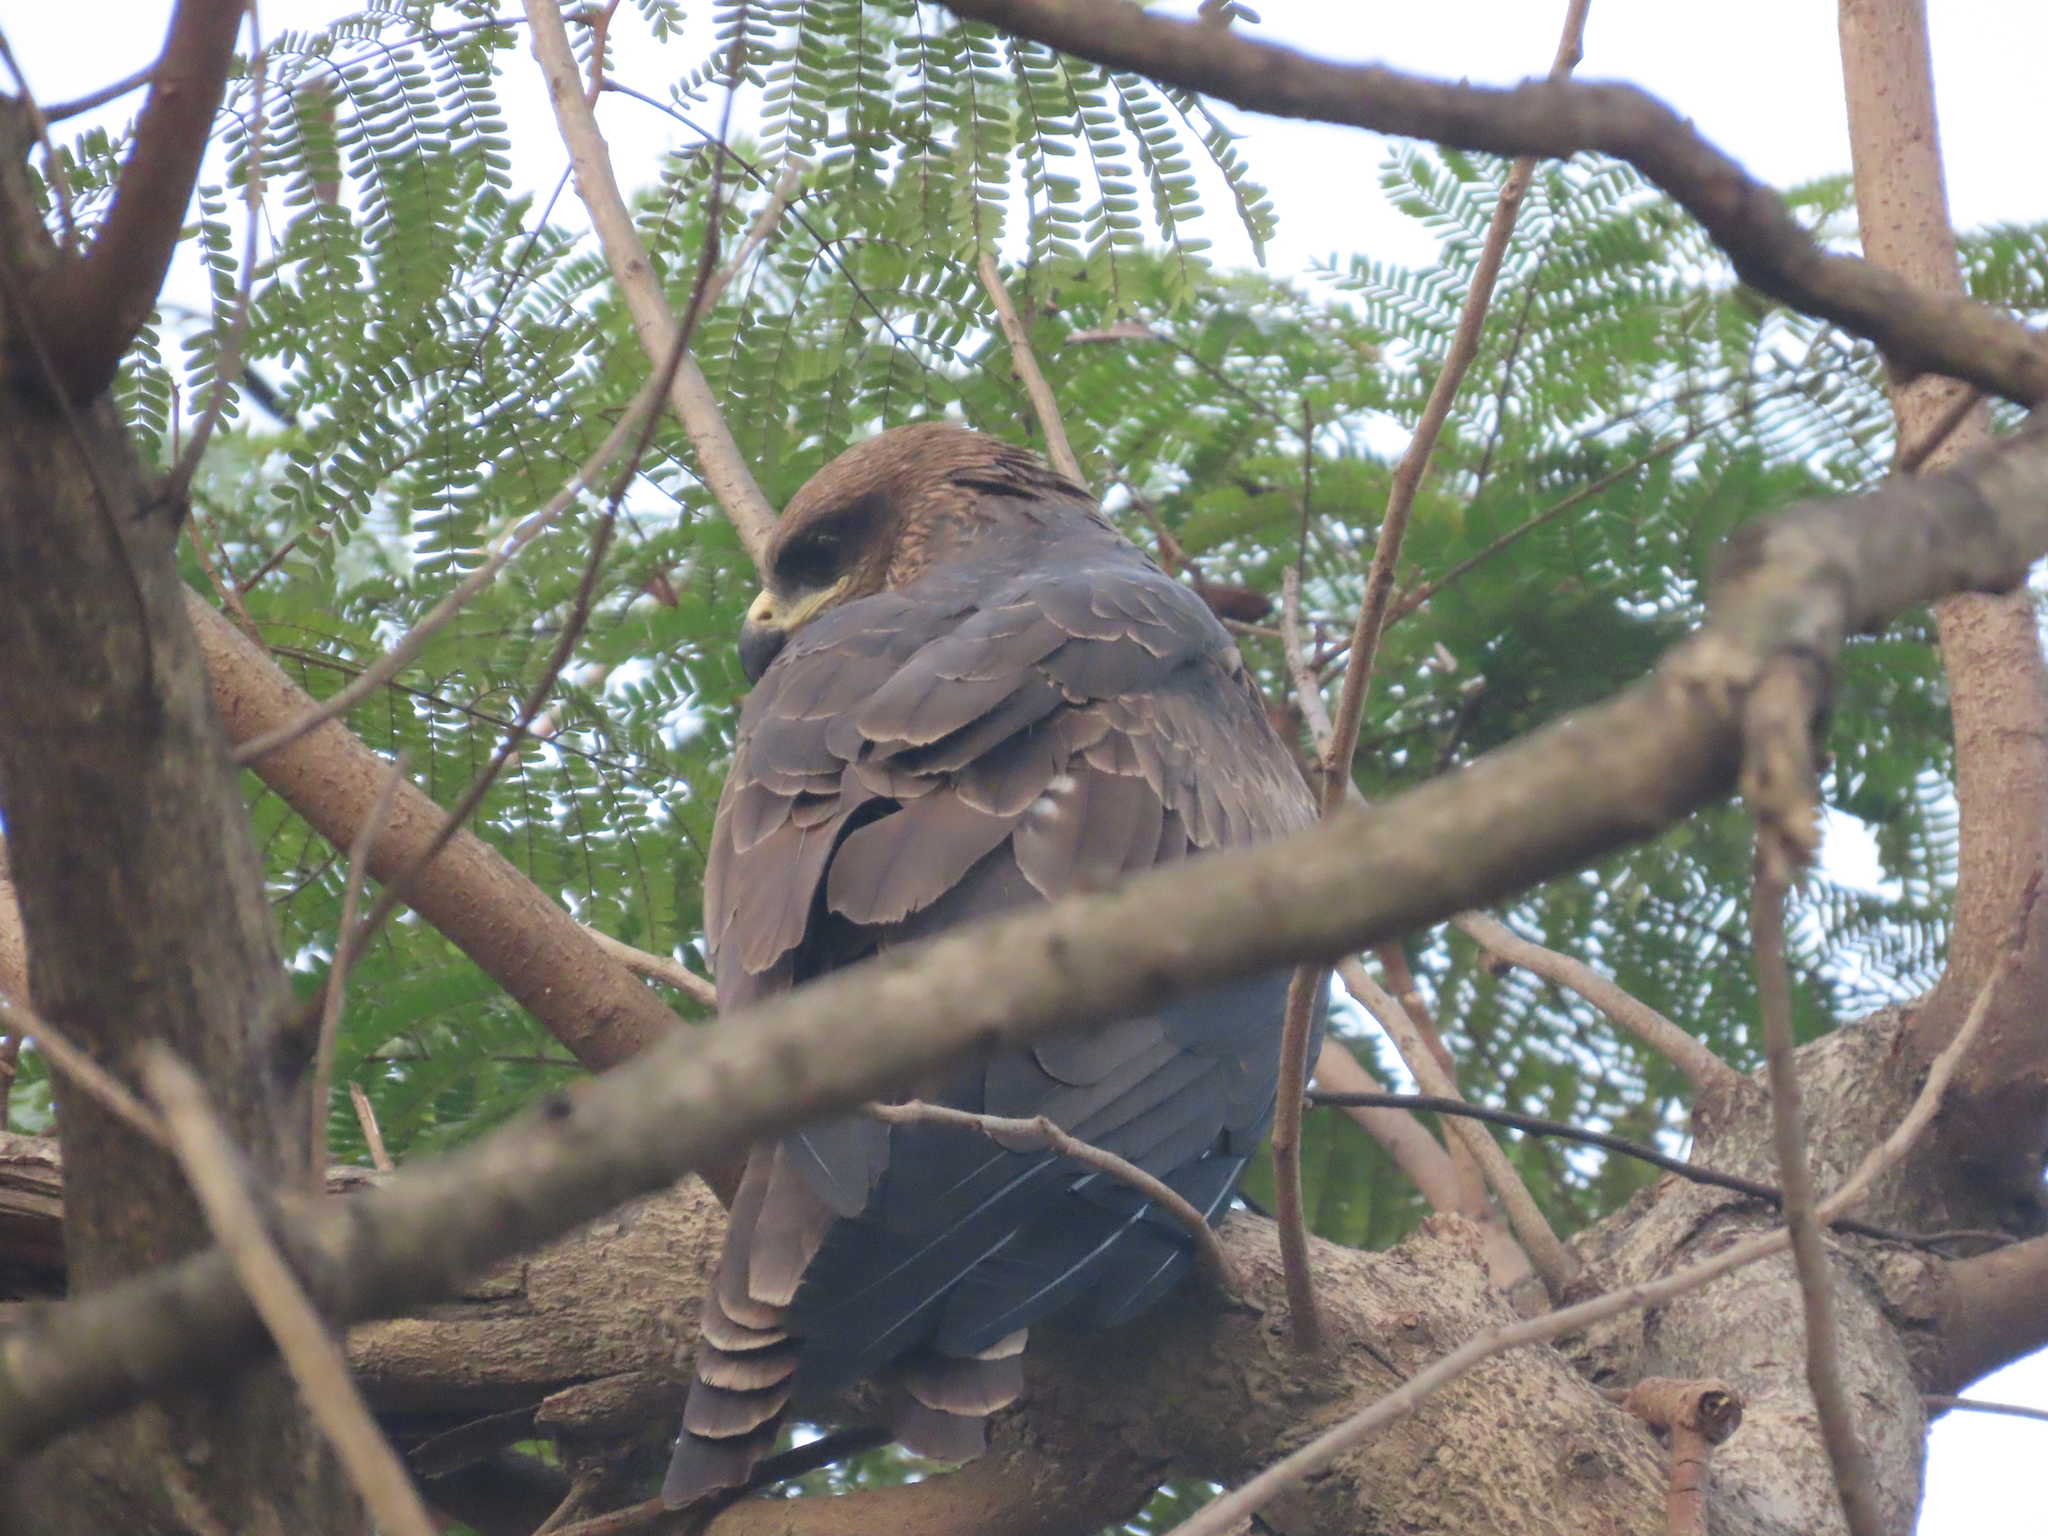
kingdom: Animalia
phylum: Chordata
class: Aves
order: Accipitriformes
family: Accipitridae
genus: Milvus
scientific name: Milvus migrans
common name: Black kite
